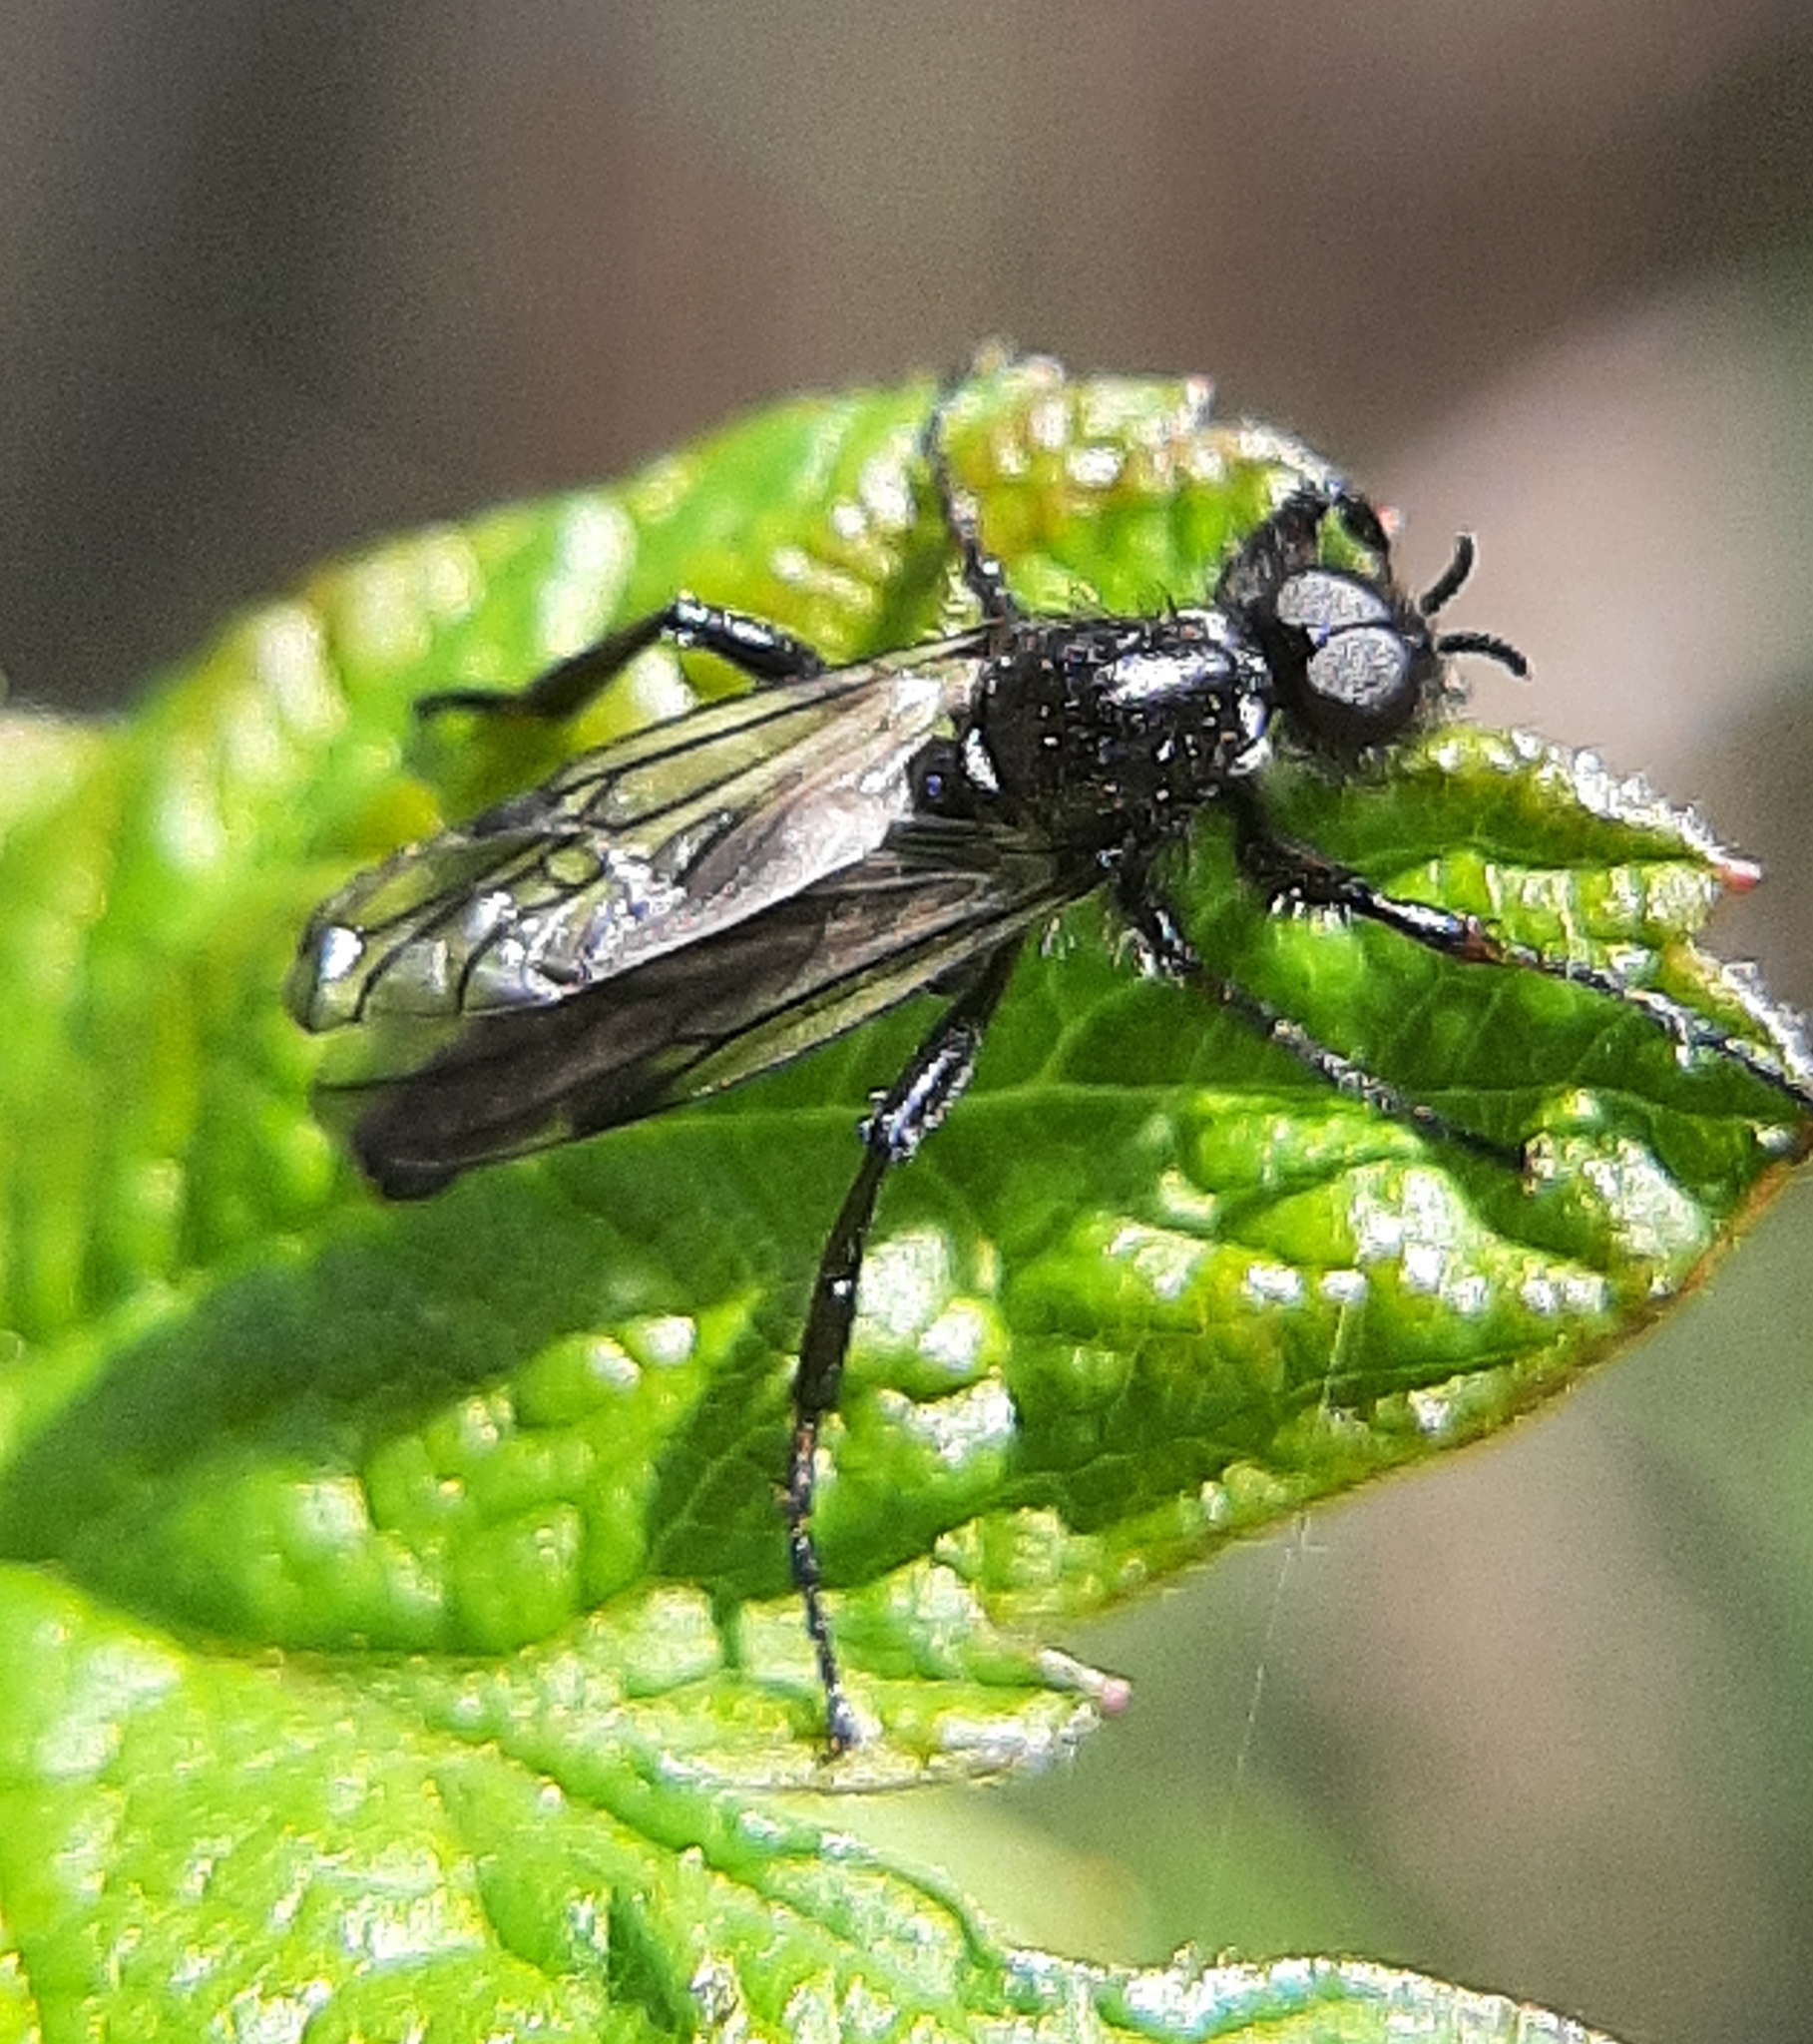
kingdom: Animalia
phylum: Arthropoda
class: Insecta
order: Diptera
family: Bibionidae
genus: Bibio
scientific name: Bibio xanthopus
